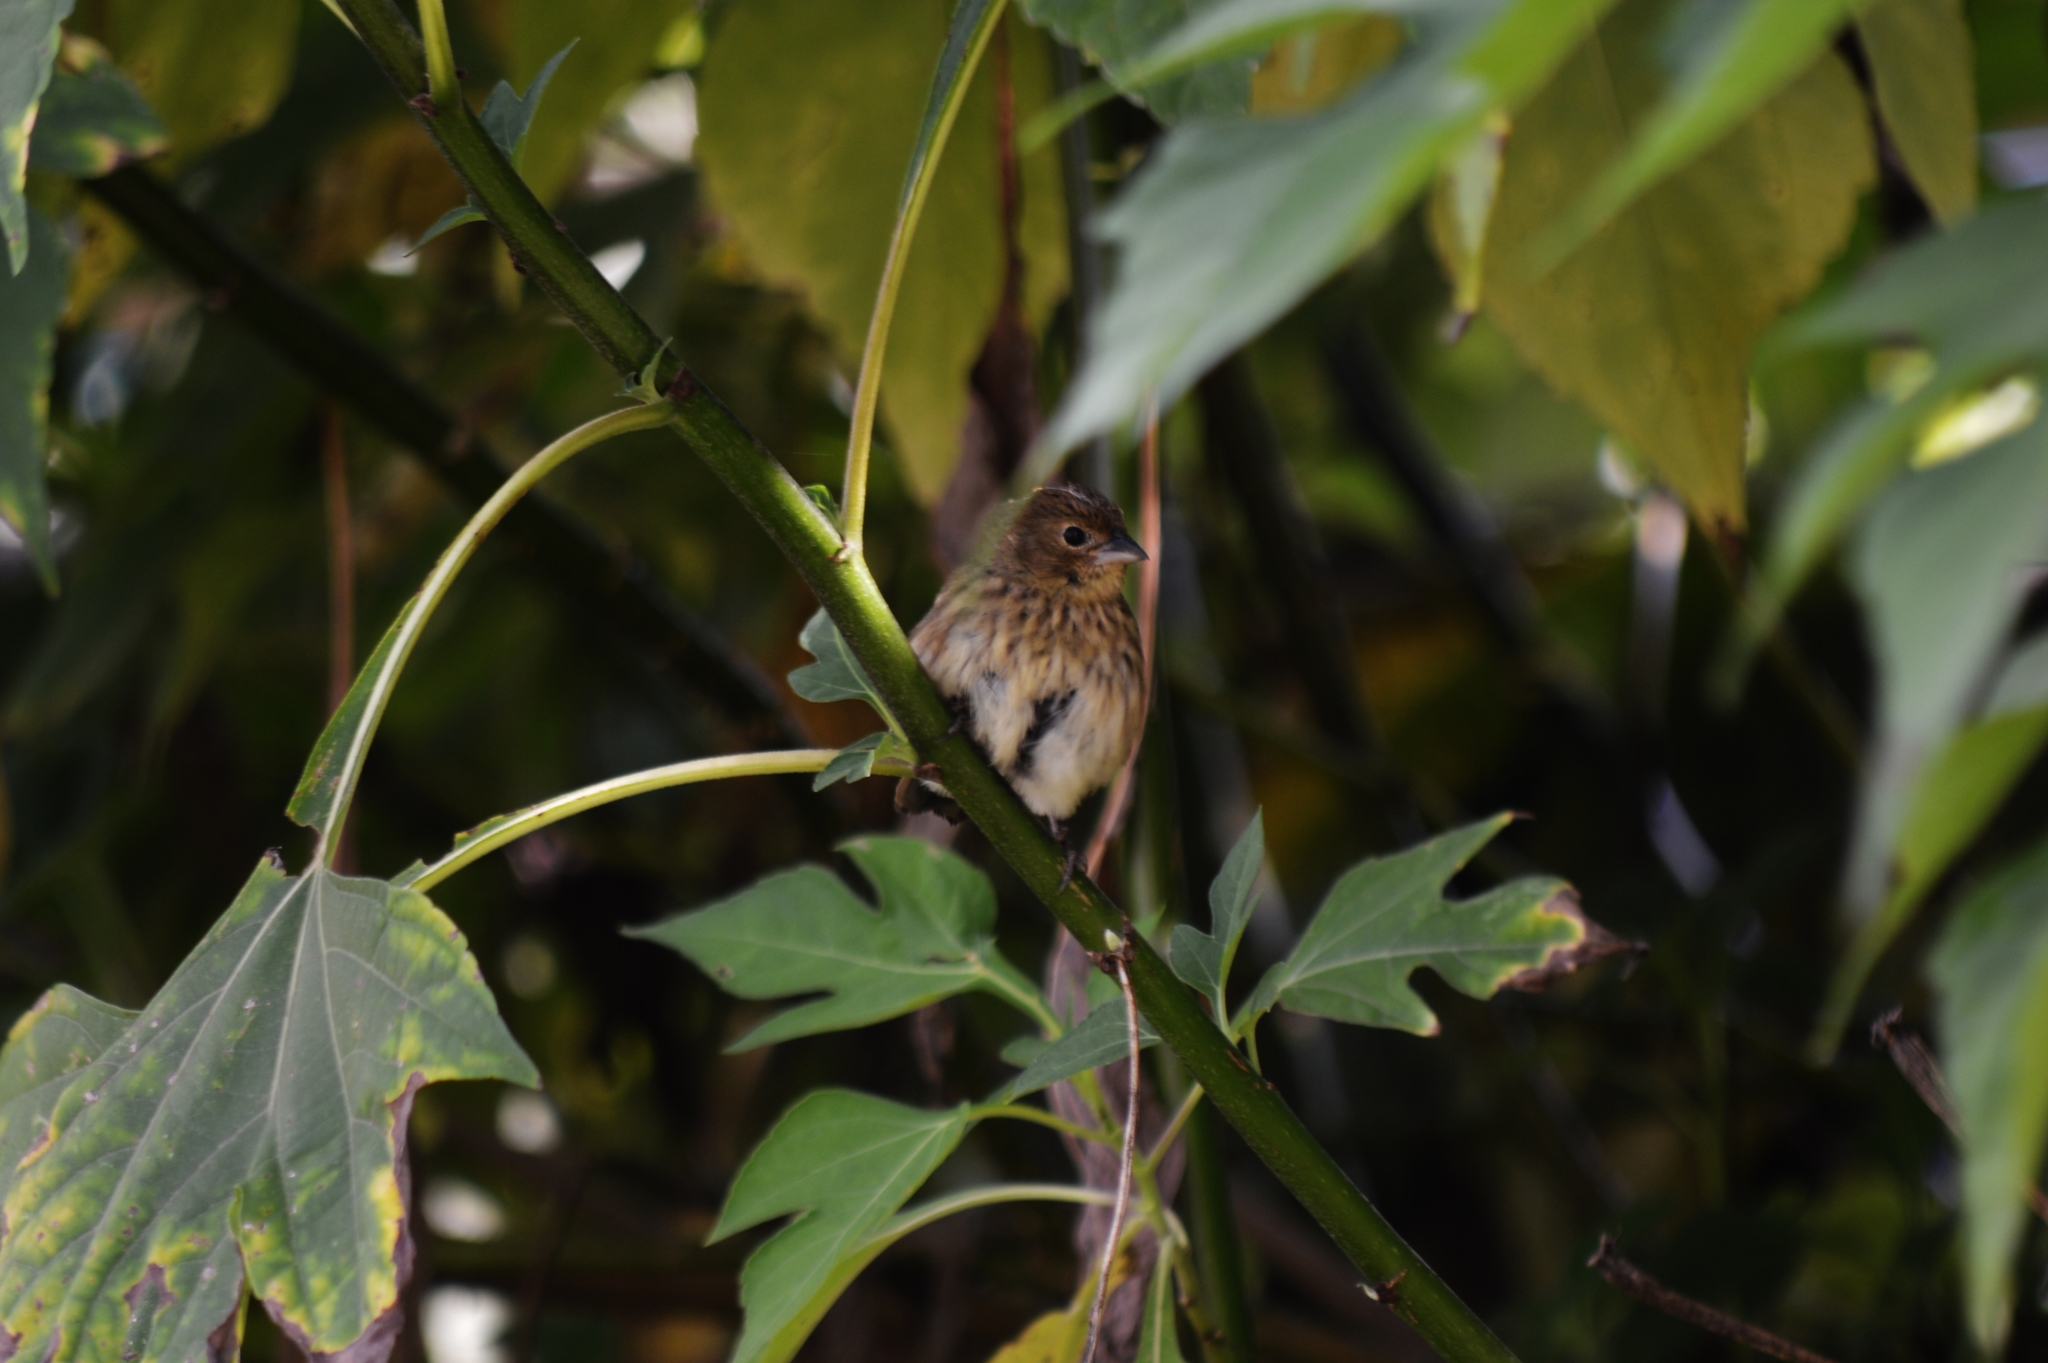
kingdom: Animalia
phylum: Chordata
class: Aves
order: Passeriformes
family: Thraupidae
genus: Volatinia
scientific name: Volatinia jacarina
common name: Blue-black grassquit
